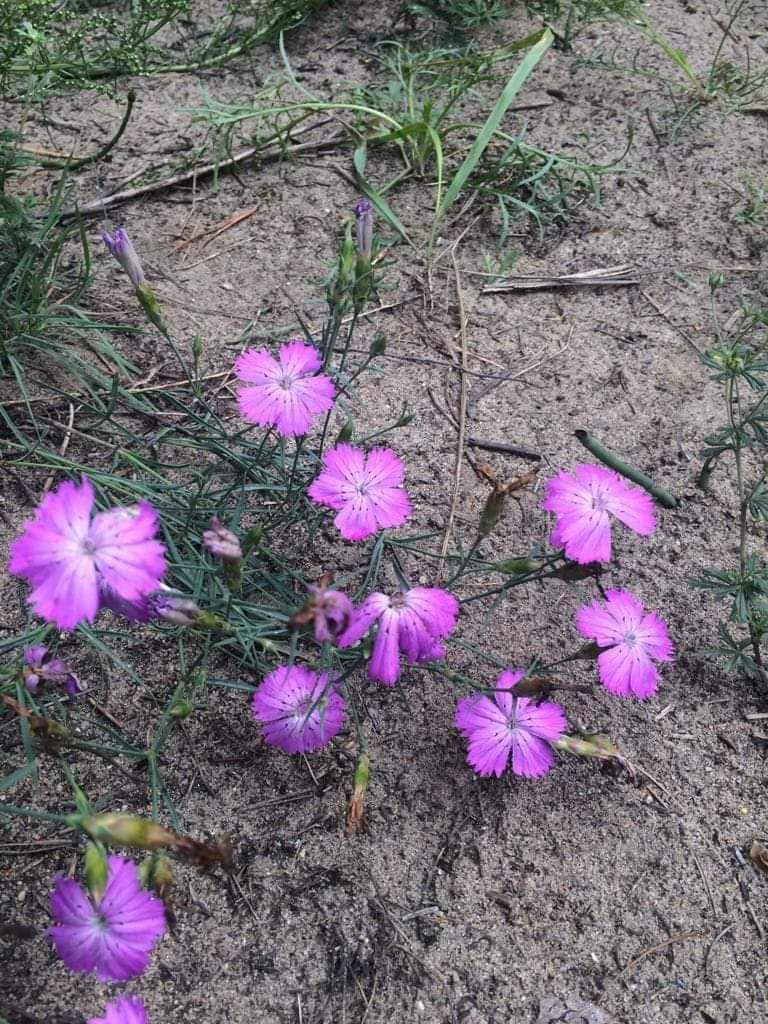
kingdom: Plantae
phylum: Tracheophyta
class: Magnoliopsida
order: Caryophyllales
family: Caryophyllaceae
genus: Dianthus
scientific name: Dianthus chinensis
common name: Rainbow pink
